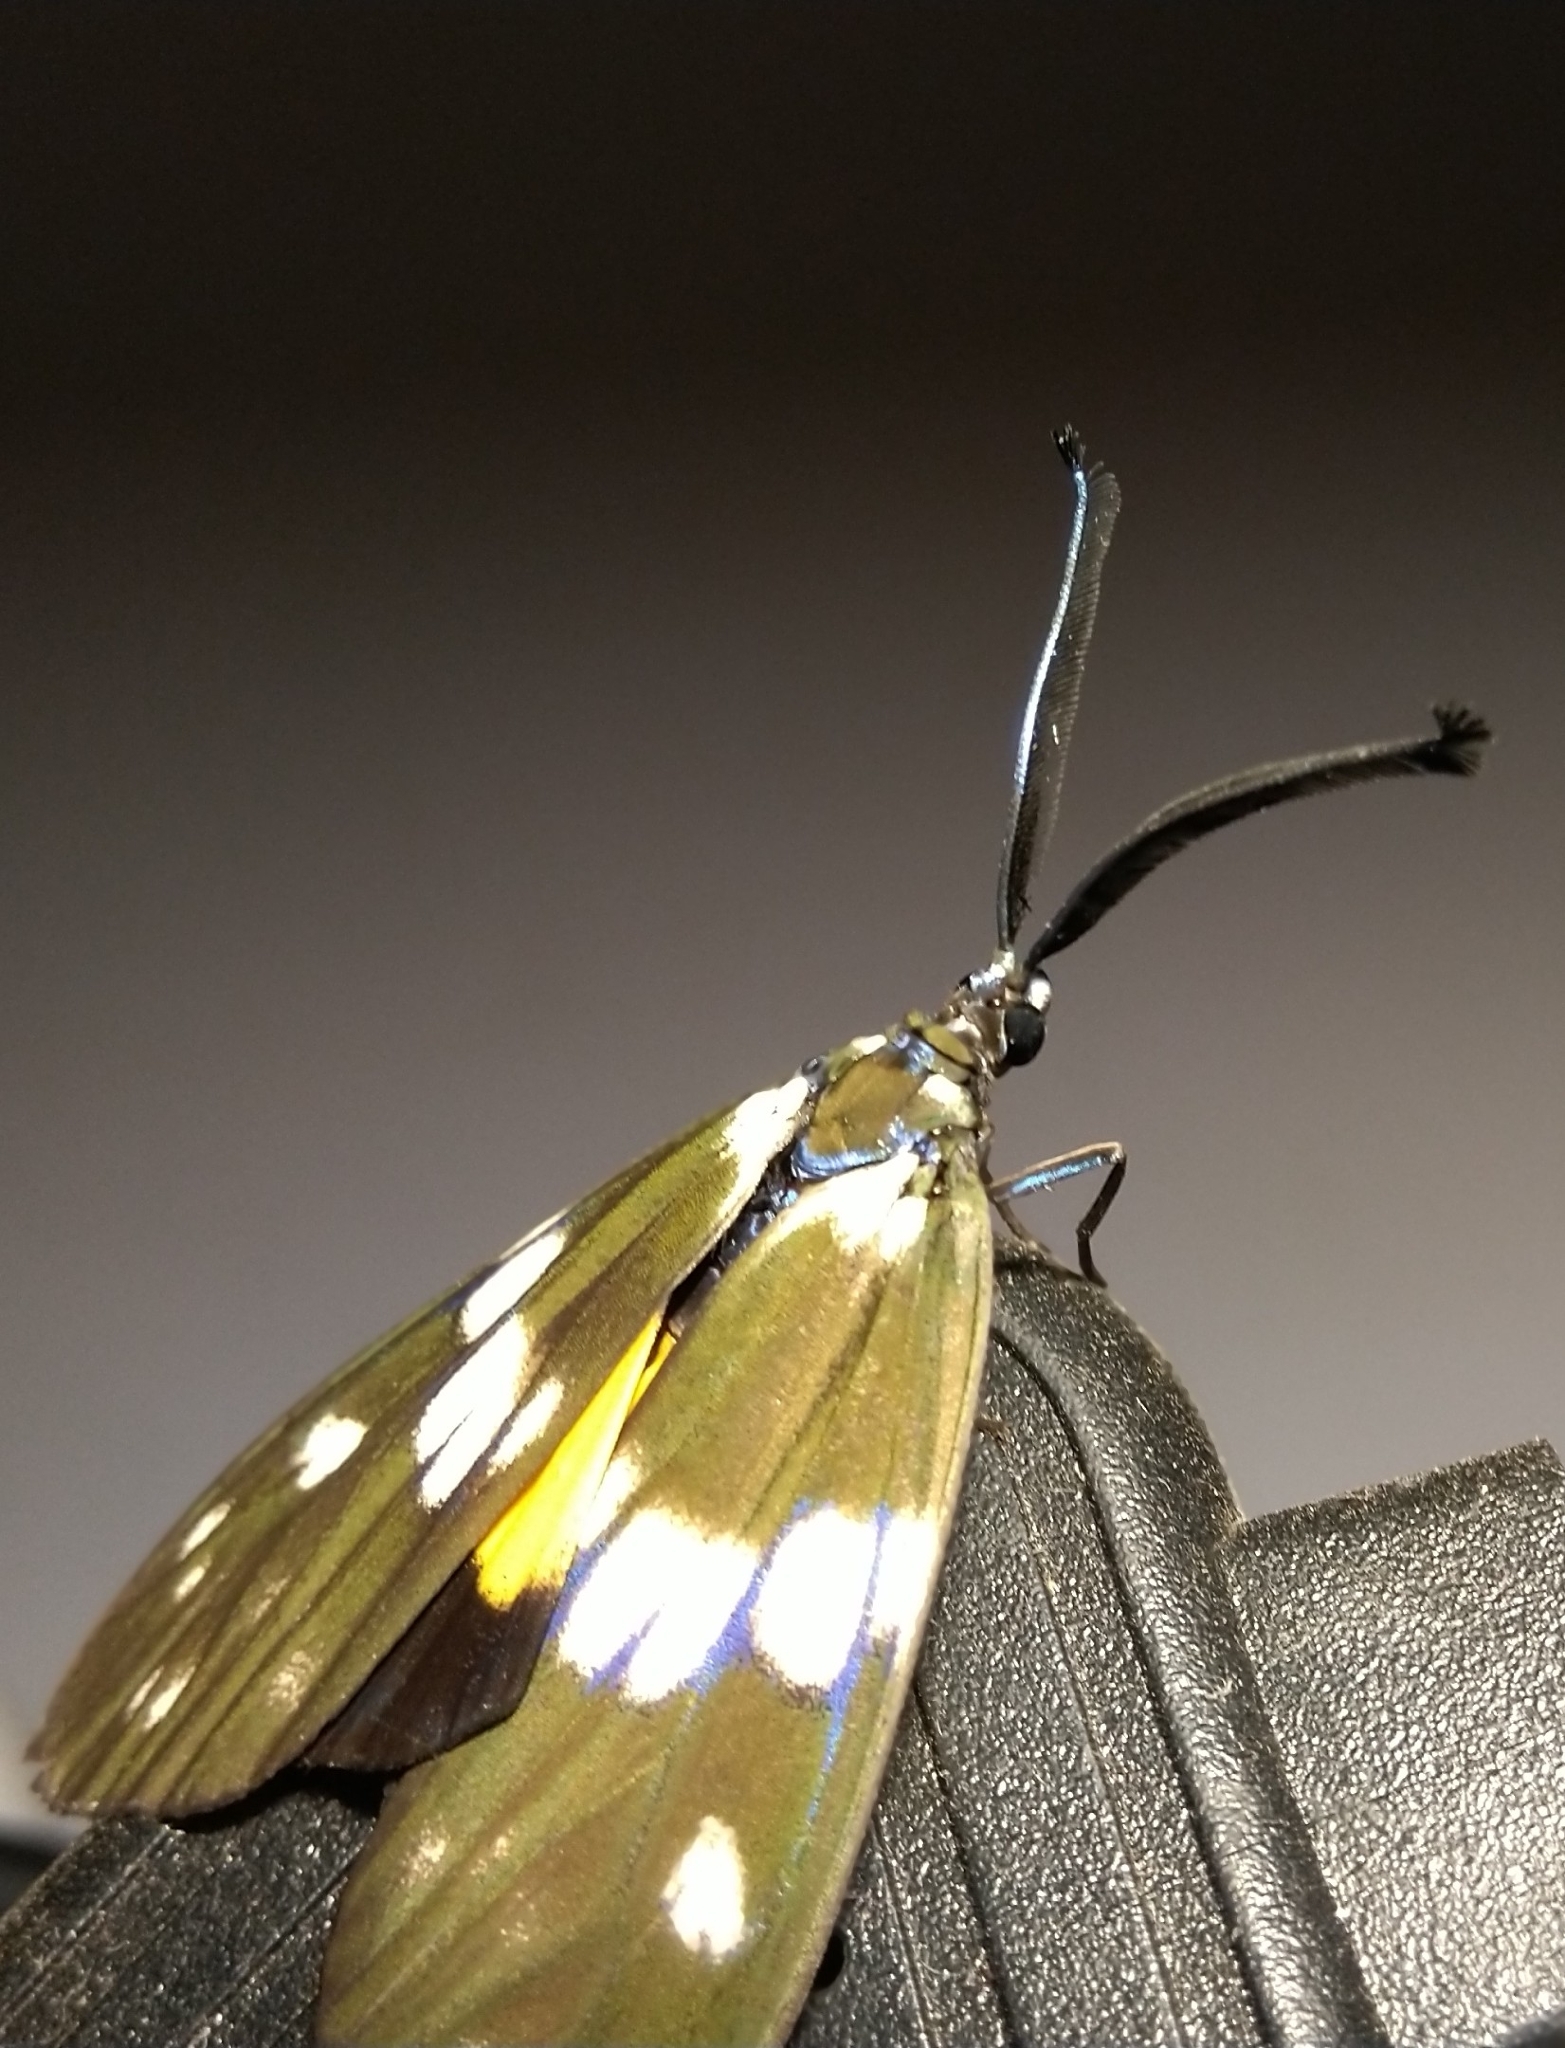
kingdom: Animalia
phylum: Arthropoda
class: Insecta
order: Lepidoptera
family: Zygaenidae
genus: Eterusia
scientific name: Eterusia aedea
